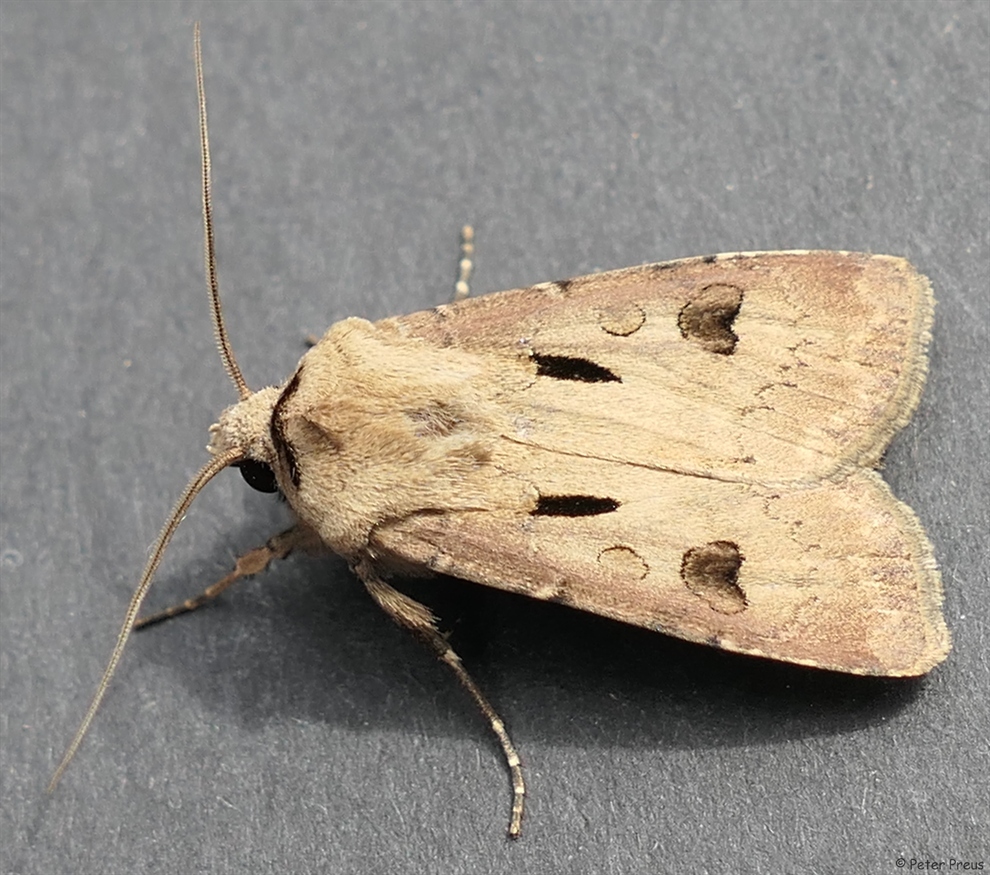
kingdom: Animalia
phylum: Arthropoda
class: Insecta
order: Lepidoptera
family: Noctuidae
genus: Agrotis
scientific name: Agrotis exclamationis
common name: Heart and dart
